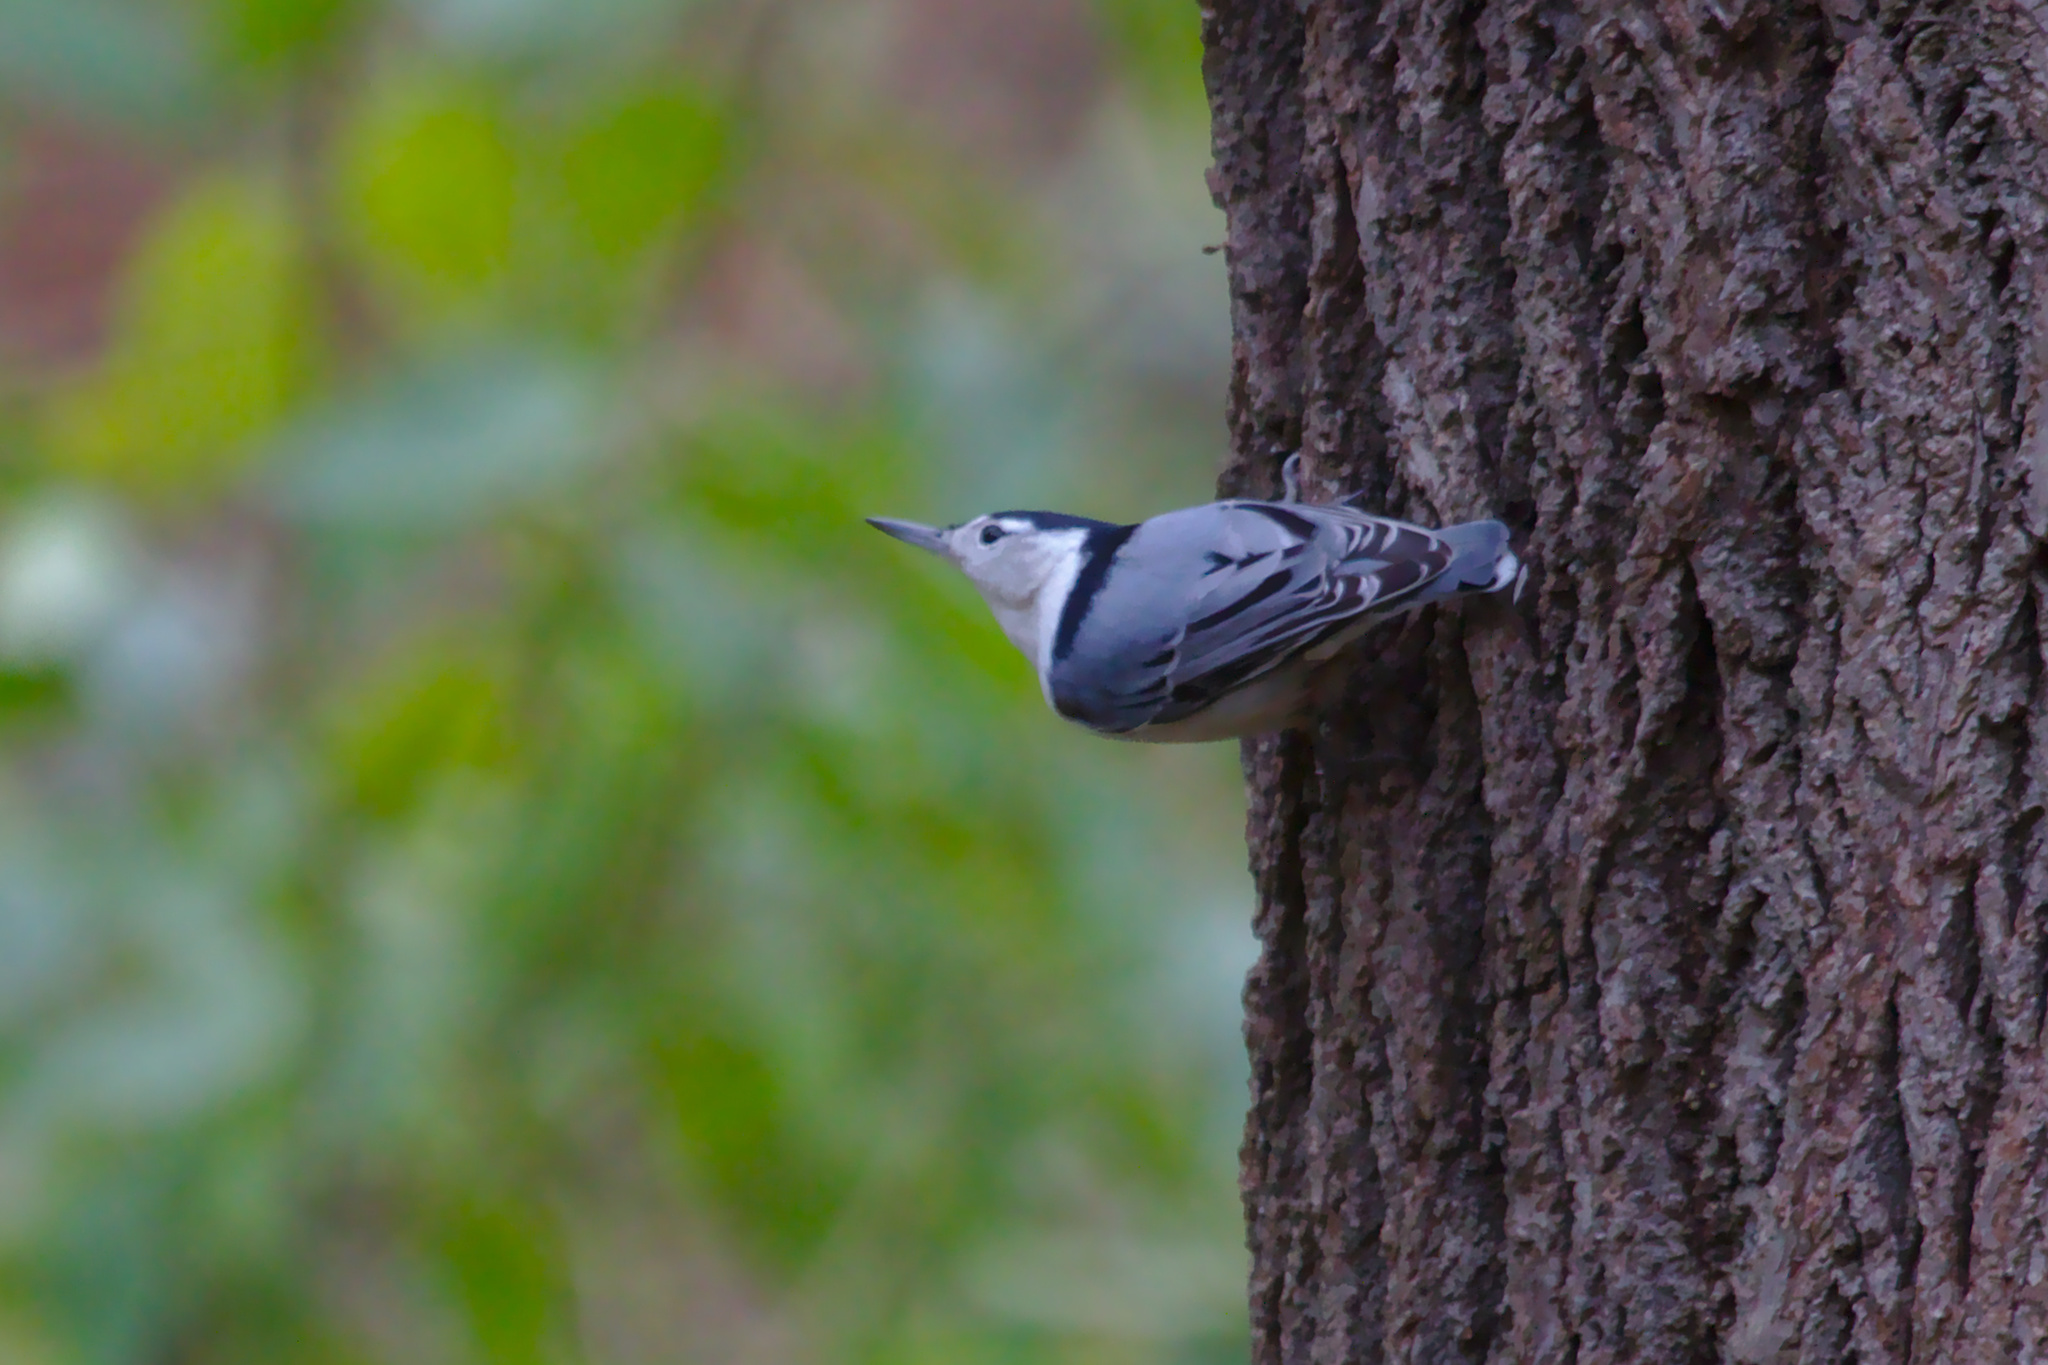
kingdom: Animalia
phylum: Chordata
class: Aves
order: Passeriformes
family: Sittidae
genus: Sitta
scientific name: Sitta carolinensis
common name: White-breasted nuthatch
